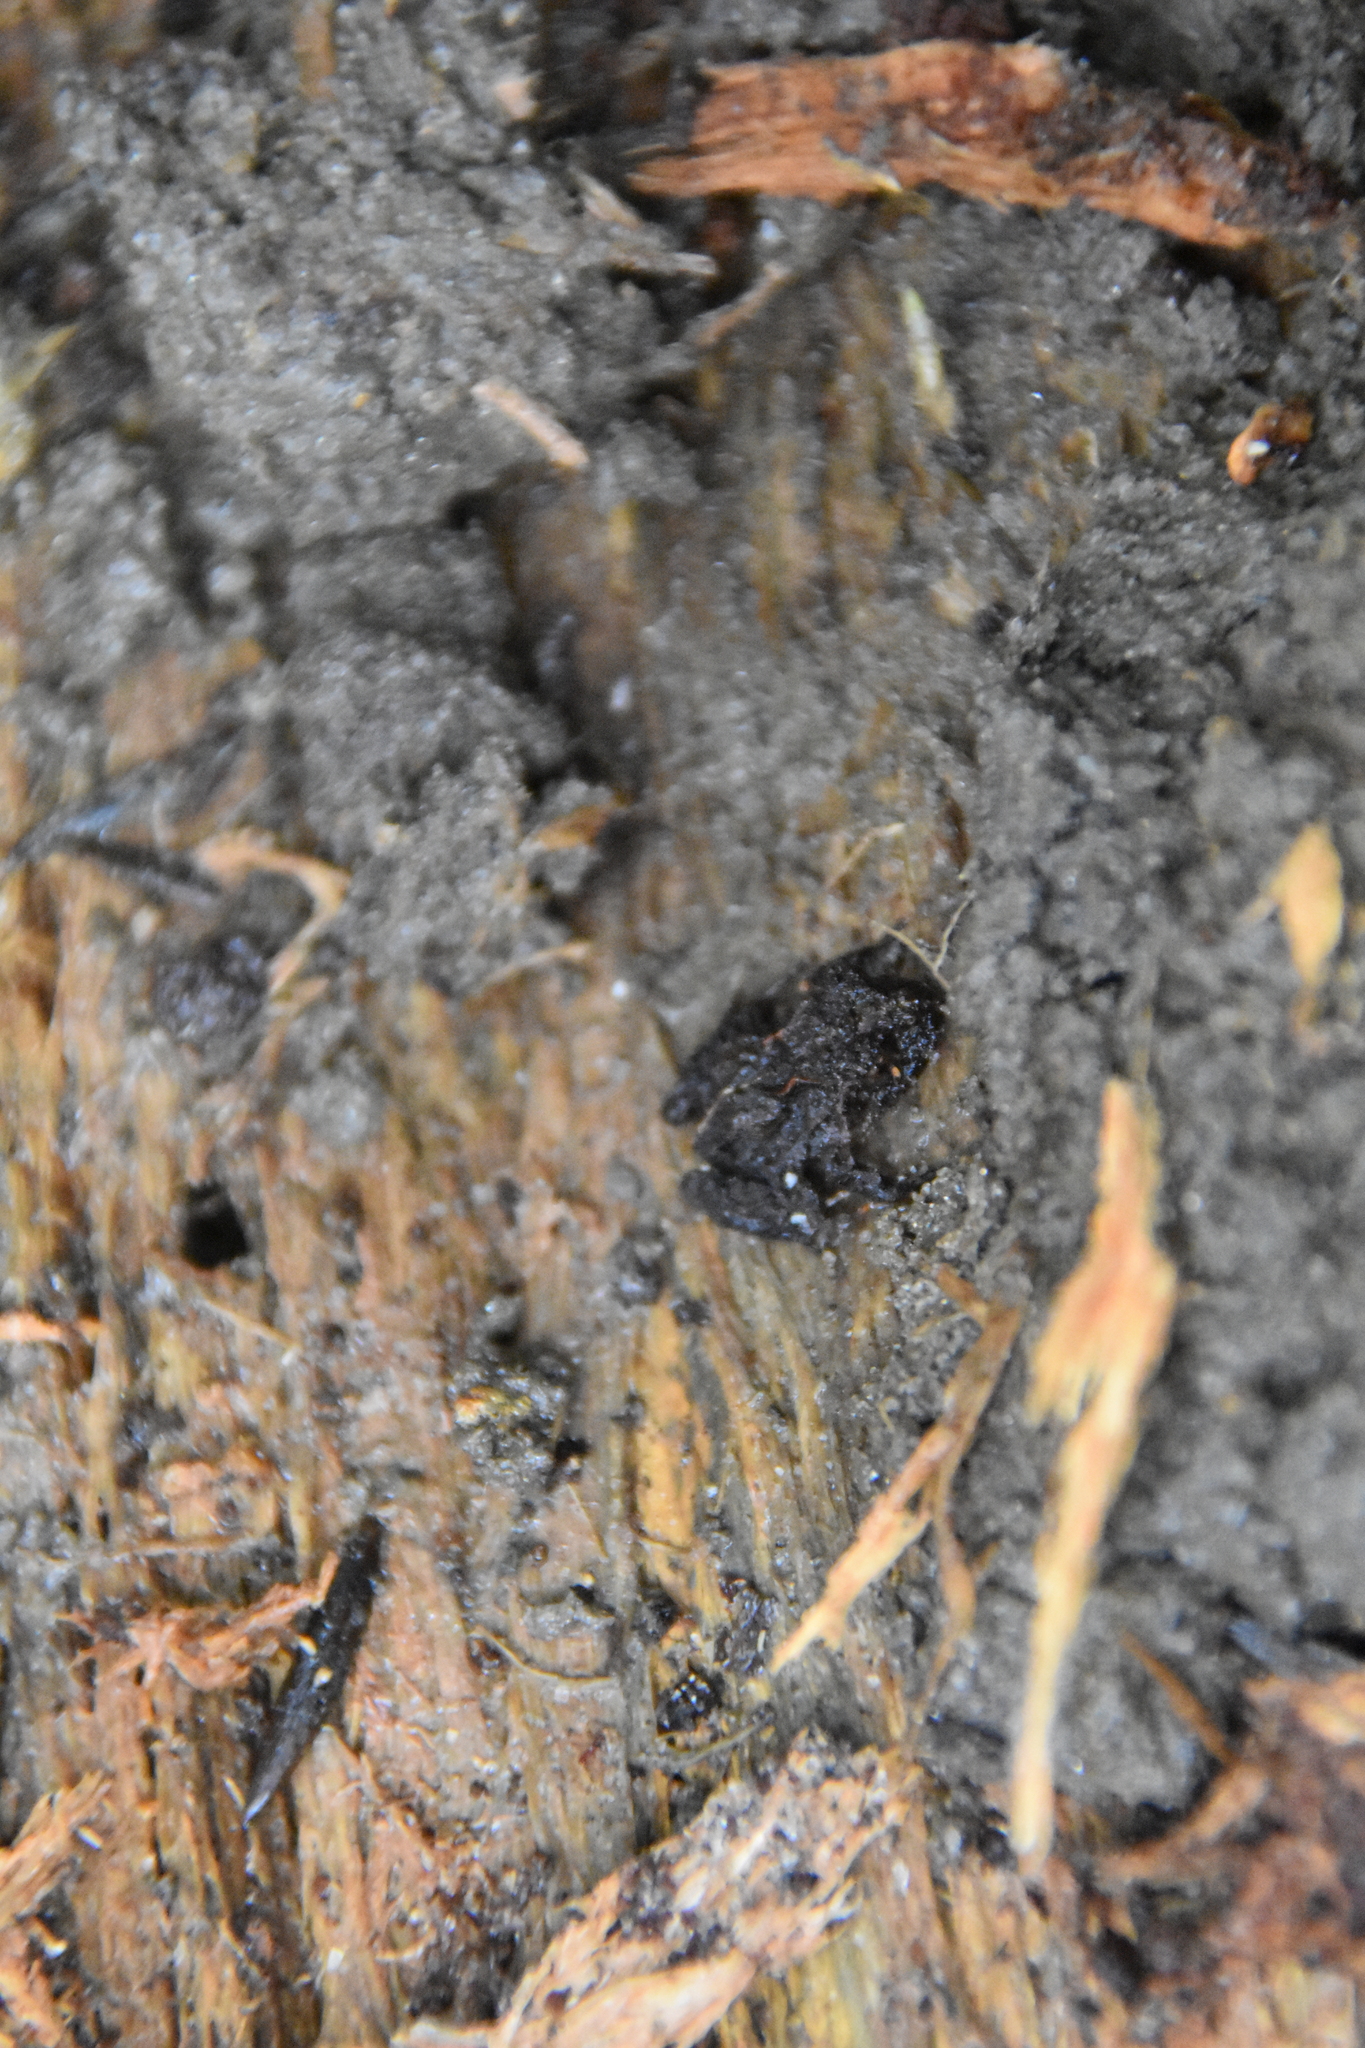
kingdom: Animalia
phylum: Chordata
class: Amphibia
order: Anura
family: Alsodidae
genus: Eupsophus
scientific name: Eupsophus vertebralis
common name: Valdivia ground frog
